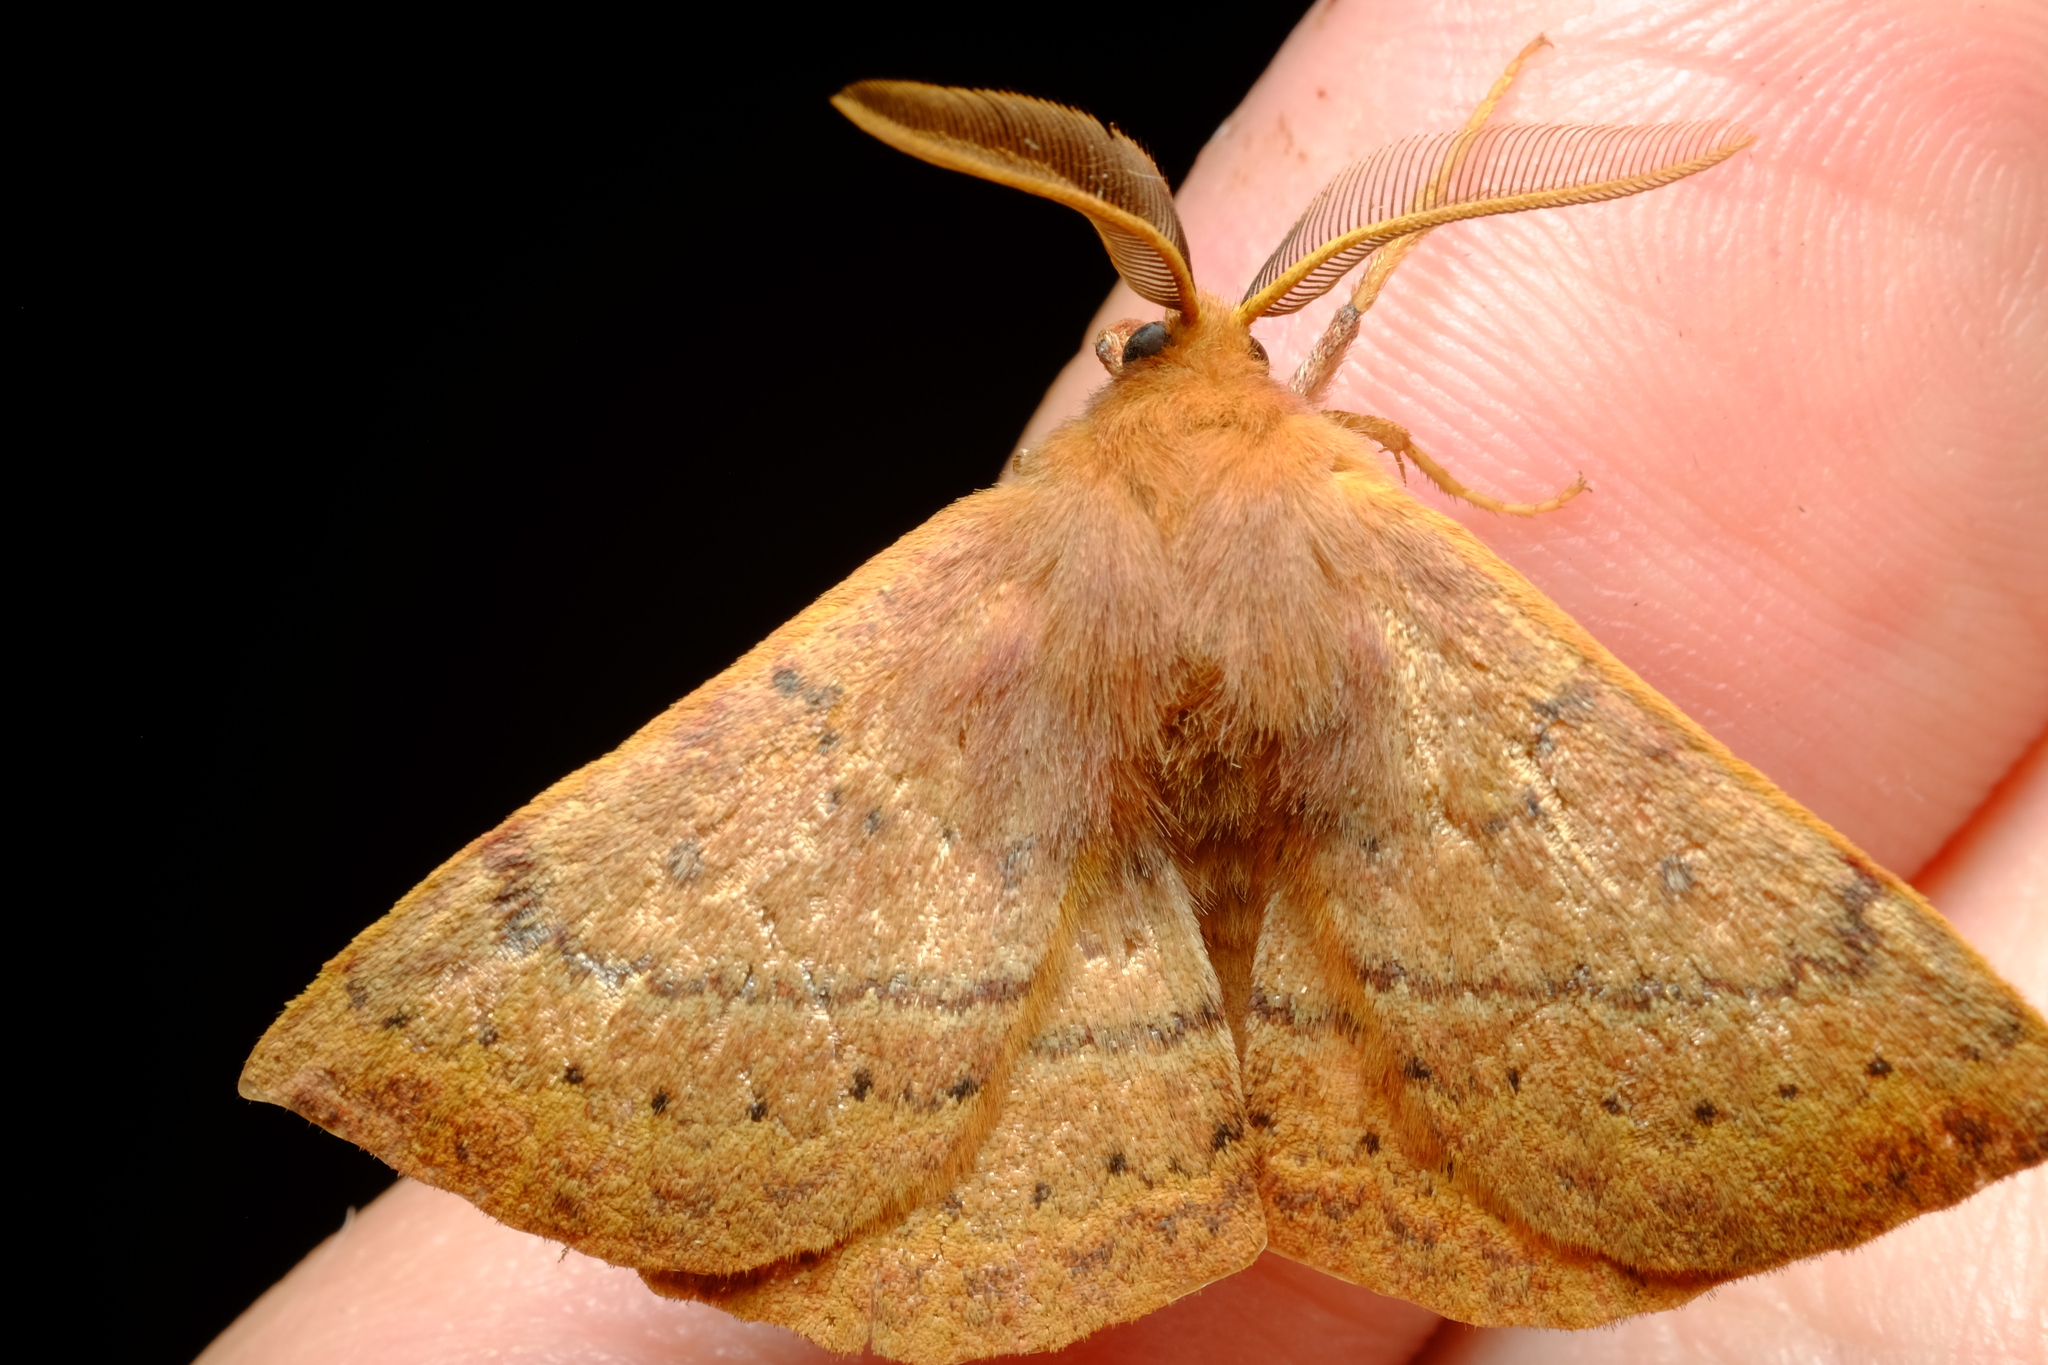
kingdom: Animalia
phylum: Arthropoda
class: Insecta
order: Lepidoptera
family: Anthelidae
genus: Anthela
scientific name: Anthela repleta
